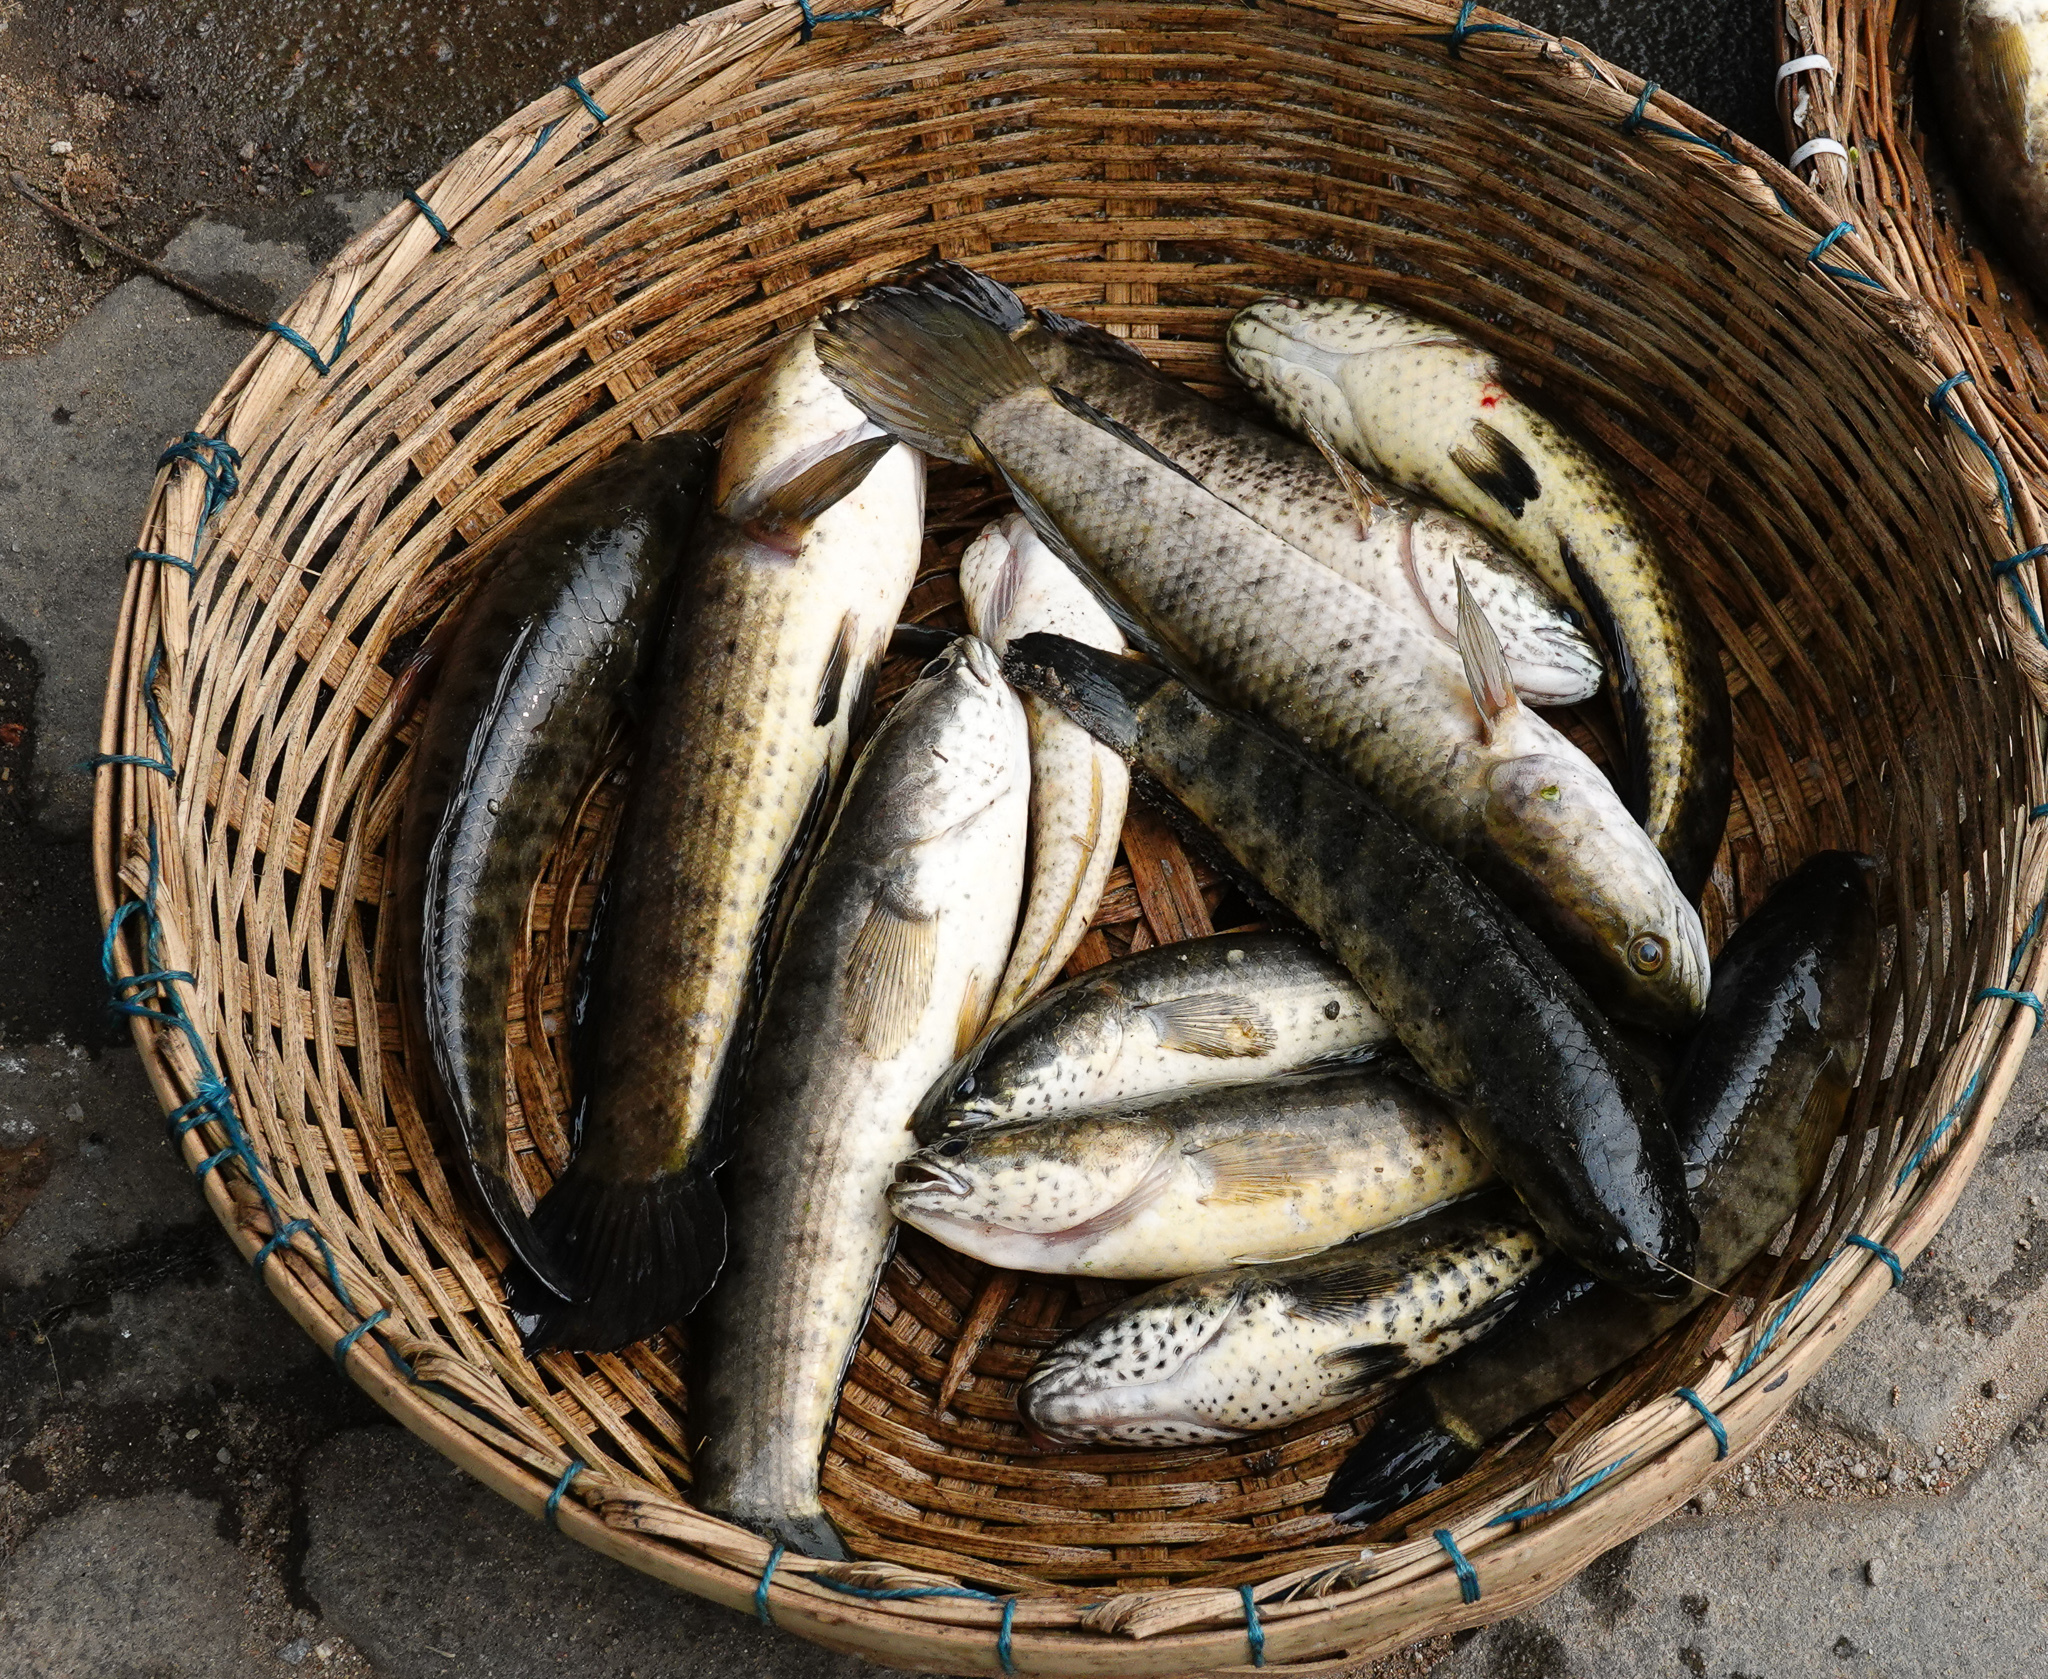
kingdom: Animalia
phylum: Chordata
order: Perciformes
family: Channidae
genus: Channa
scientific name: Channa punctata
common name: Spotted snakehead
